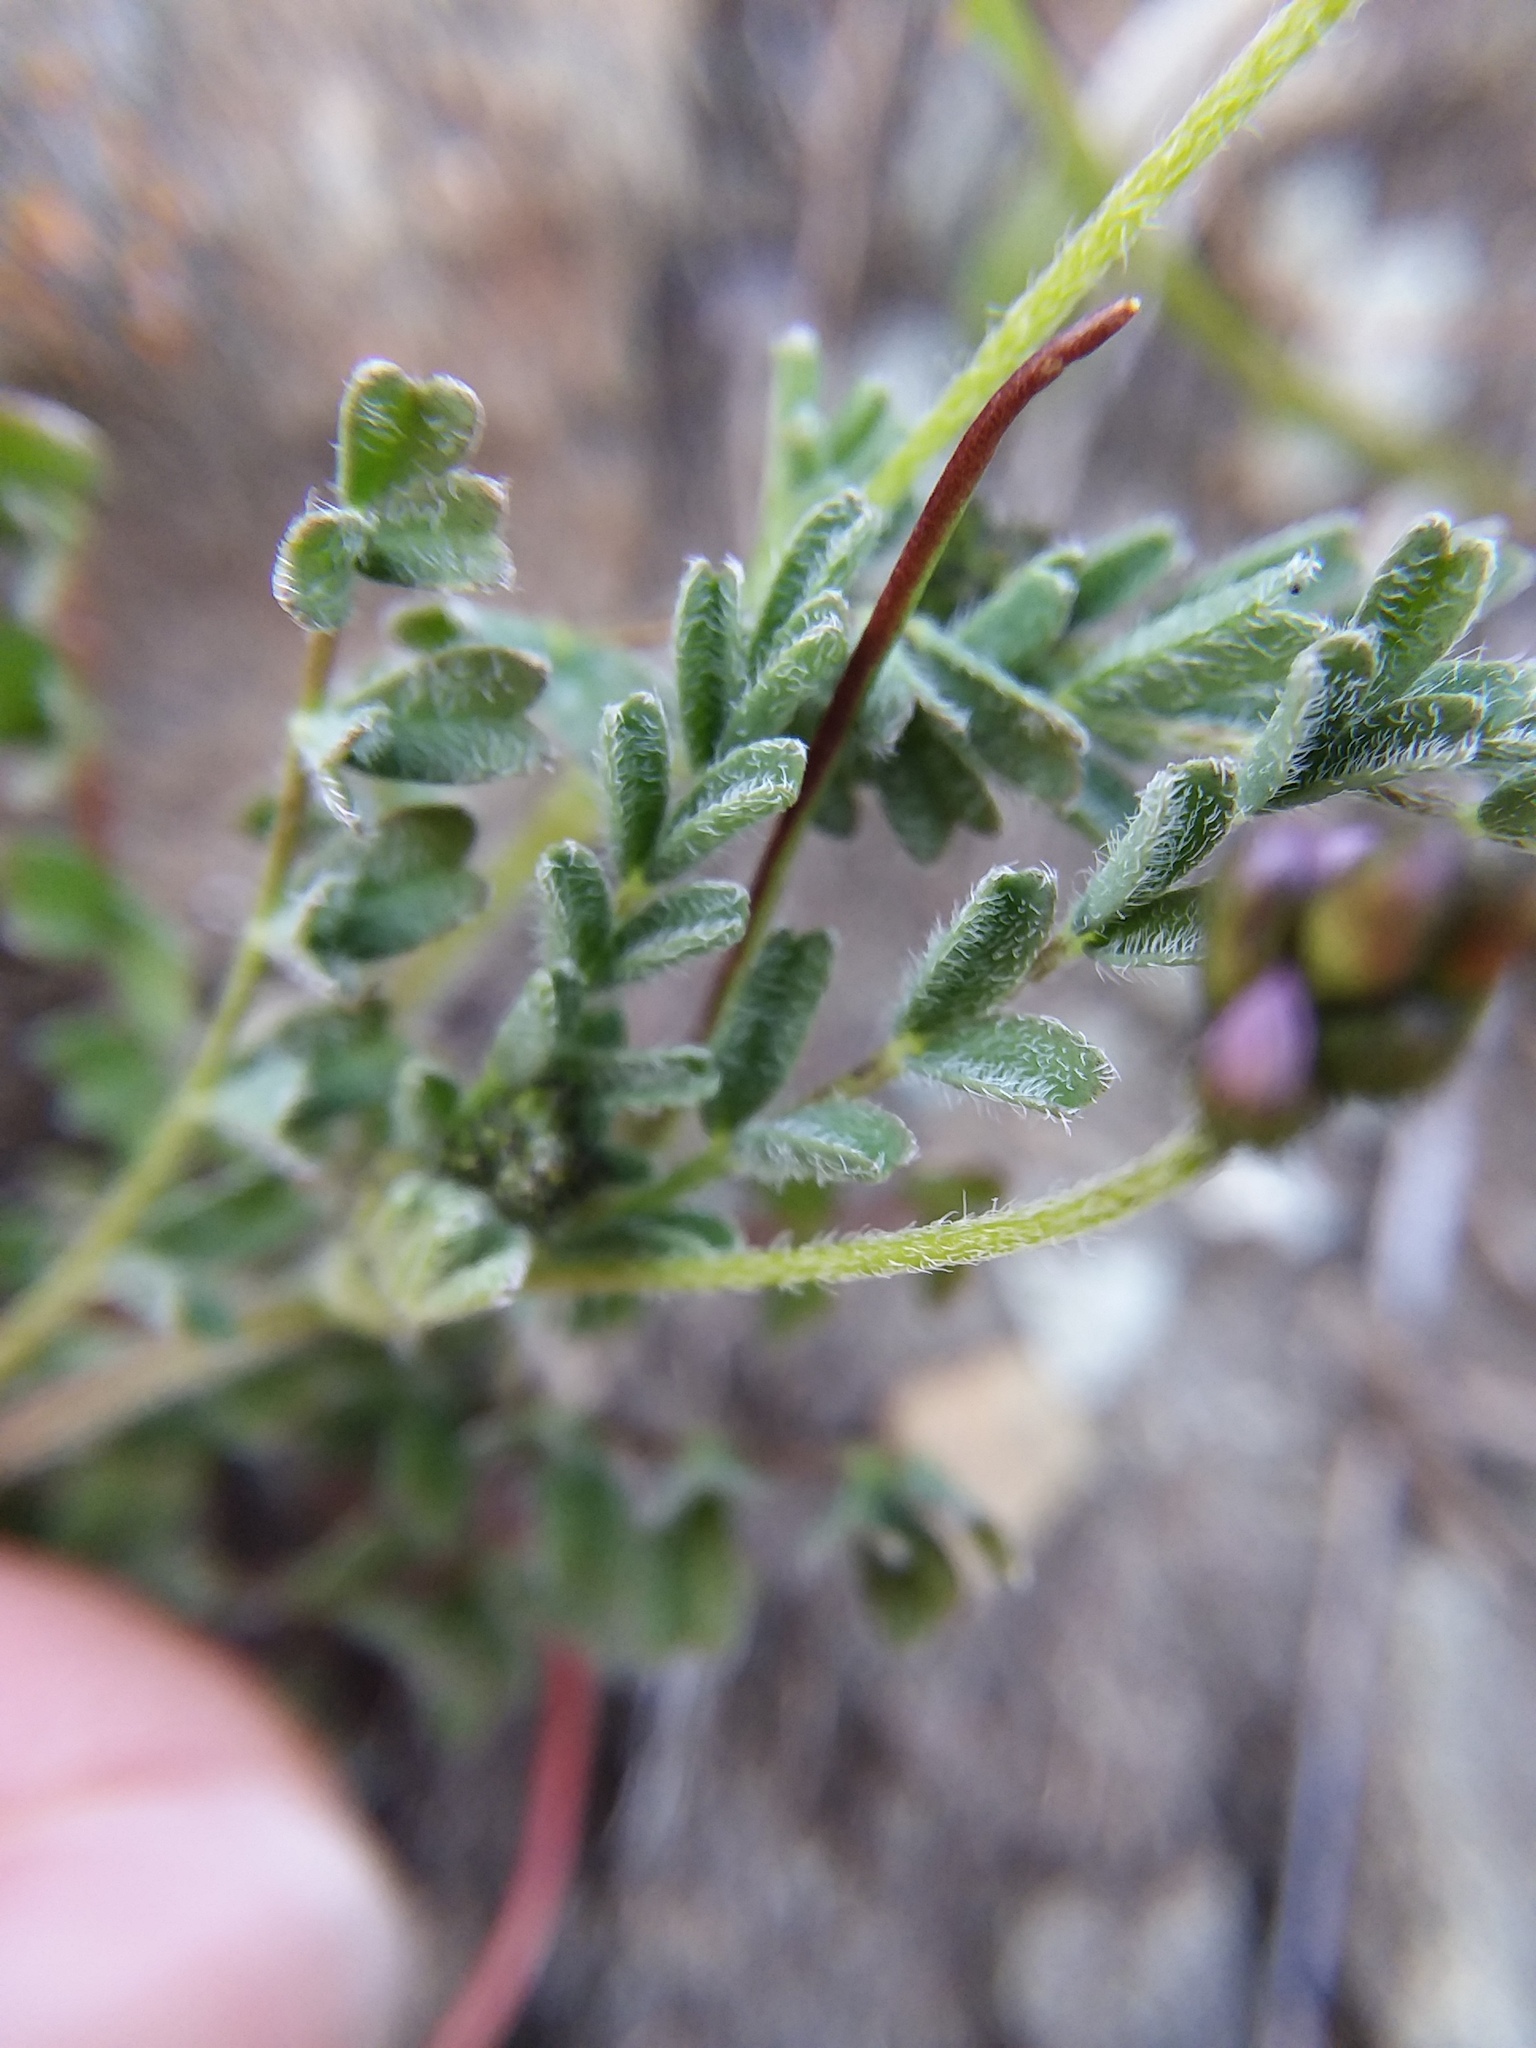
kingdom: Plantae
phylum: Tracheophyta
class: Magnoliopsida
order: Fabales
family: Fabaceae
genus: Astragalus
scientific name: Astragalus gambelianus
